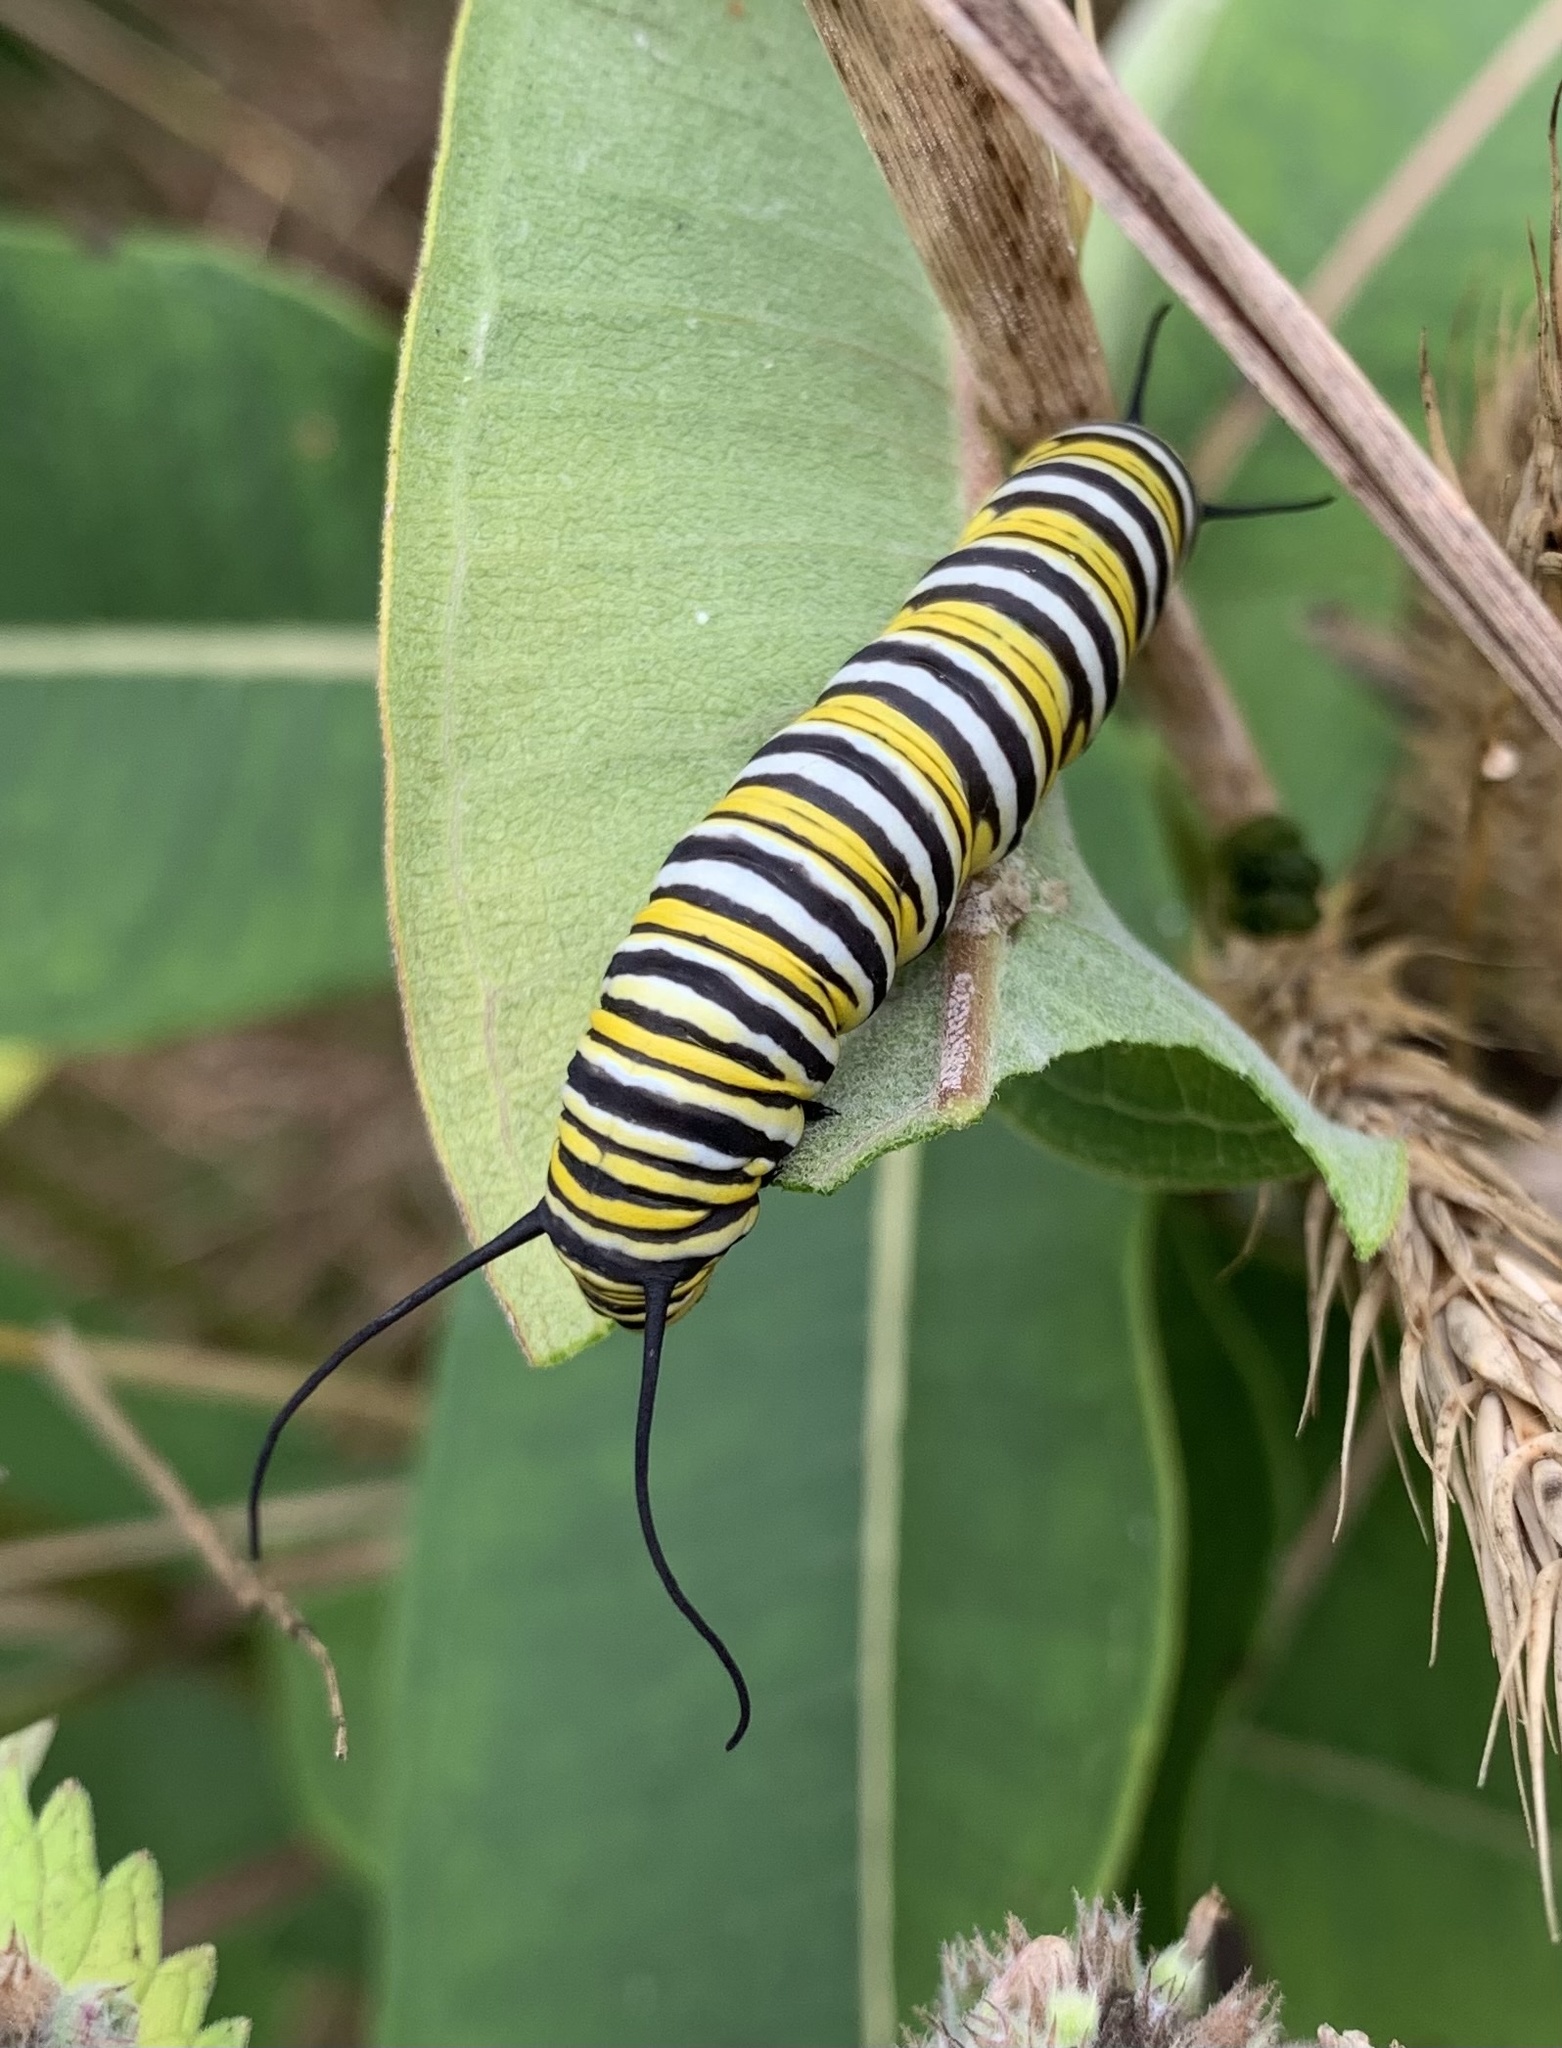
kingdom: Animalia
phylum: Arthropoda
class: Insecta
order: Lepidoptera
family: Nymphalidae
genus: Danaus
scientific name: Danaus plexippus
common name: Monarch
